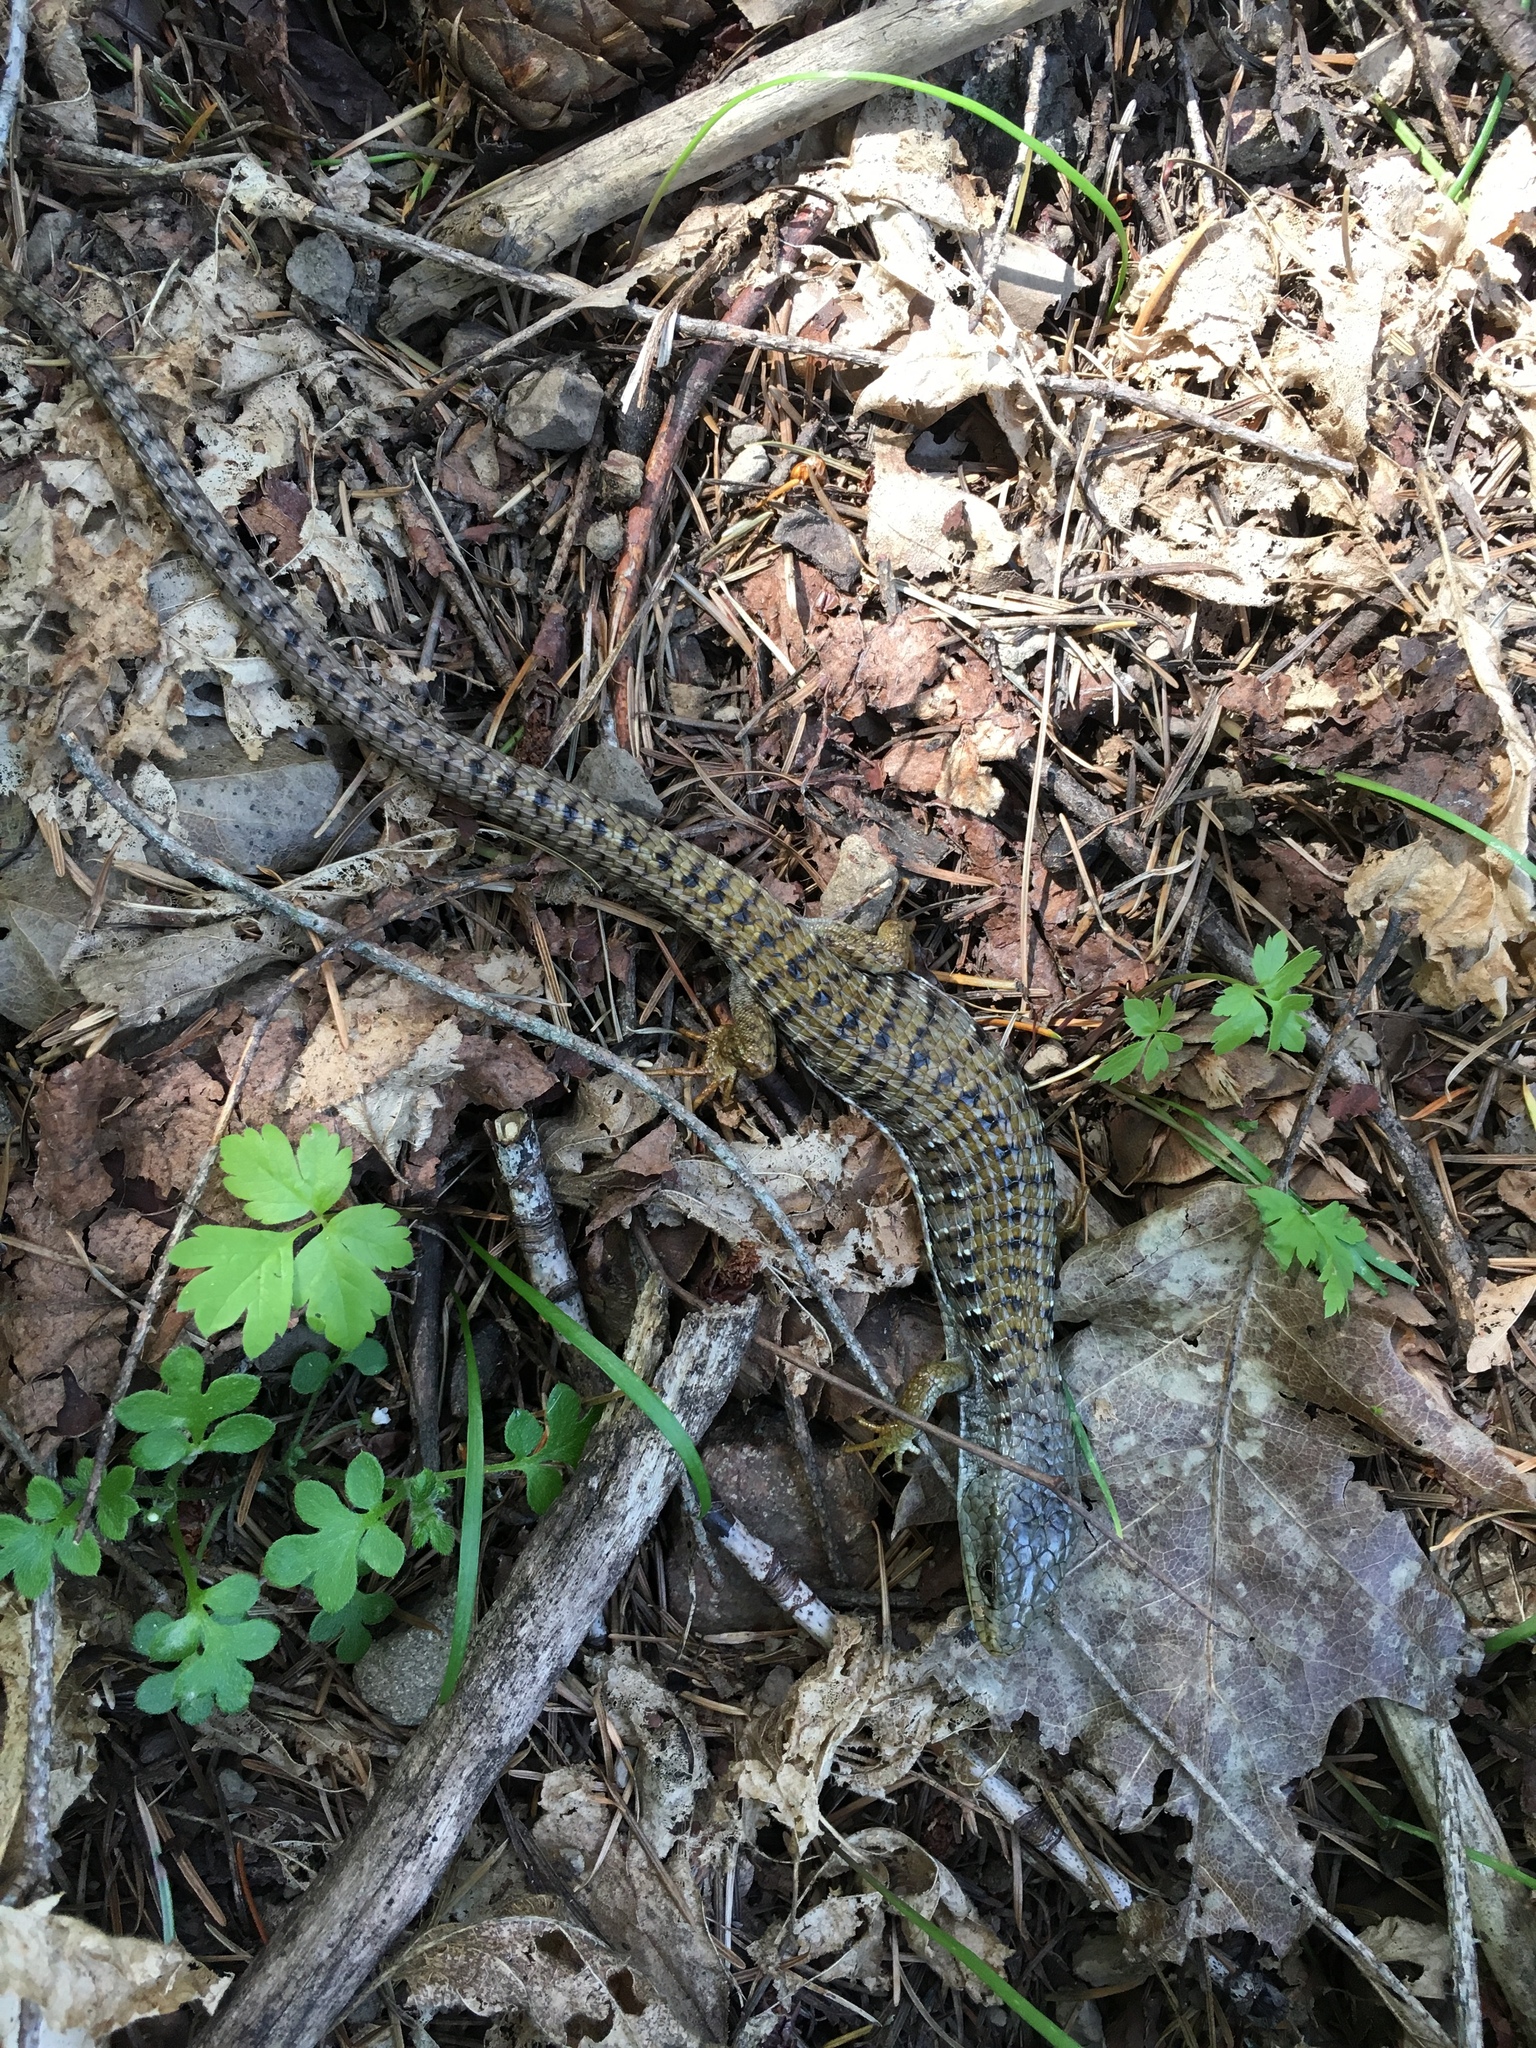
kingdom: Animalia
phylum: Chordata
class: Squamata
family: Anguidae
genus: Elgaria
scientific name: Elgaria coerulea
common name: Northern alligator lizard
